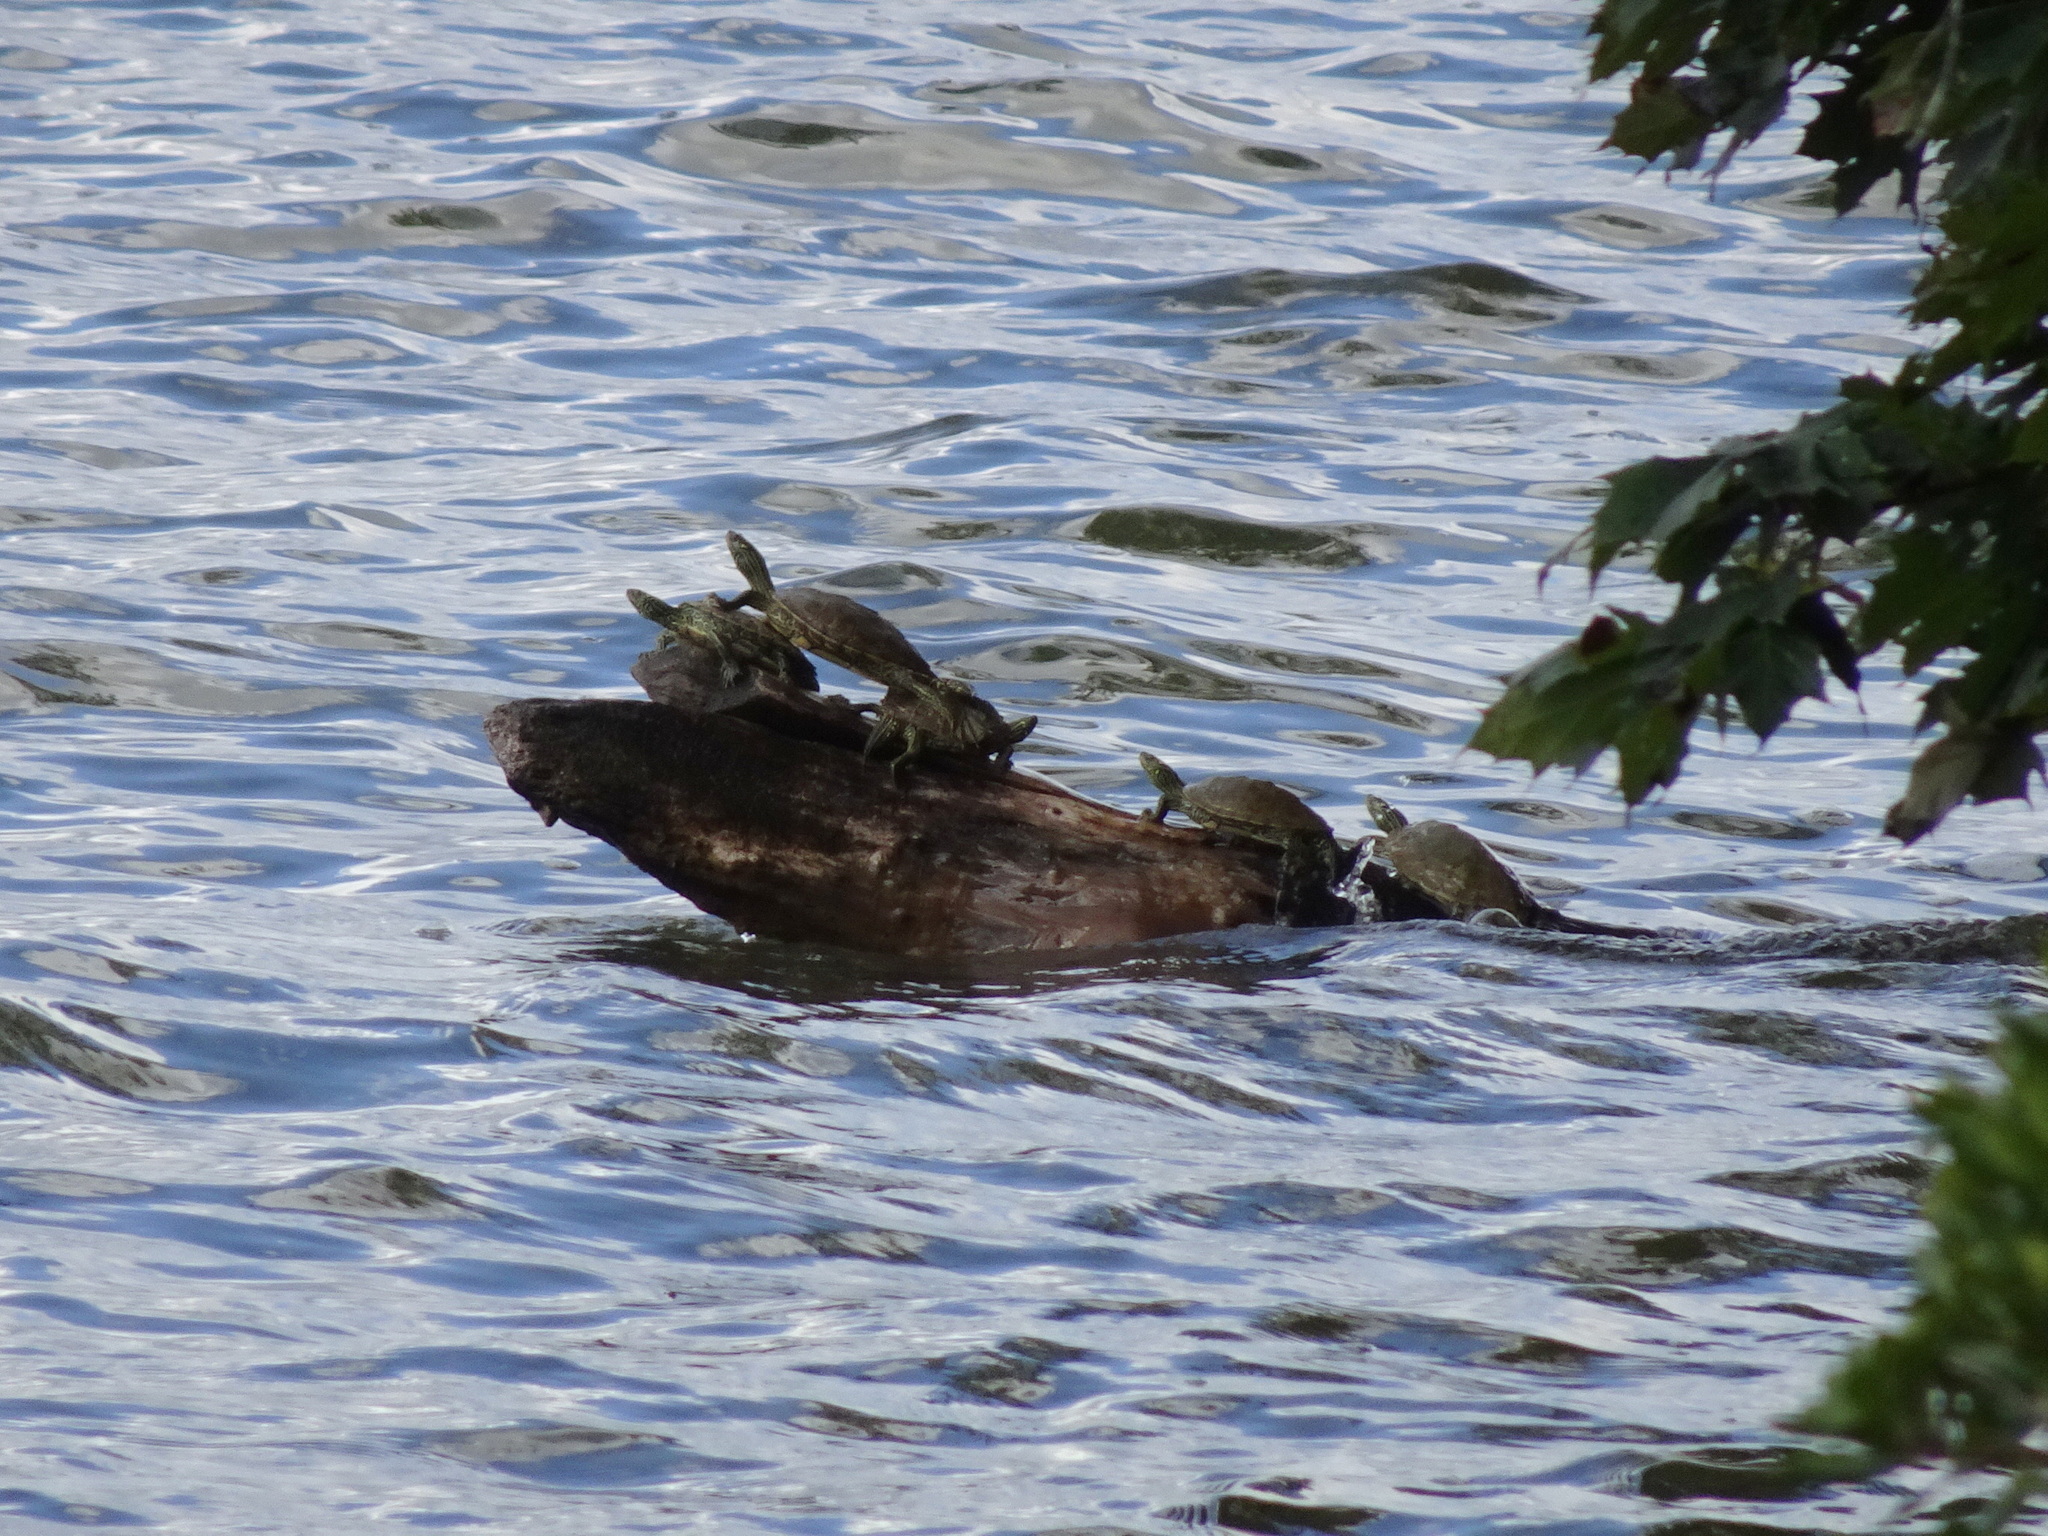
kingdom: Animalia
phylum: Chordata
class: Testudines
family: Emydidae
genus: Graptemys
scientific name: Graptemys geographica
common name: Common map turtle
